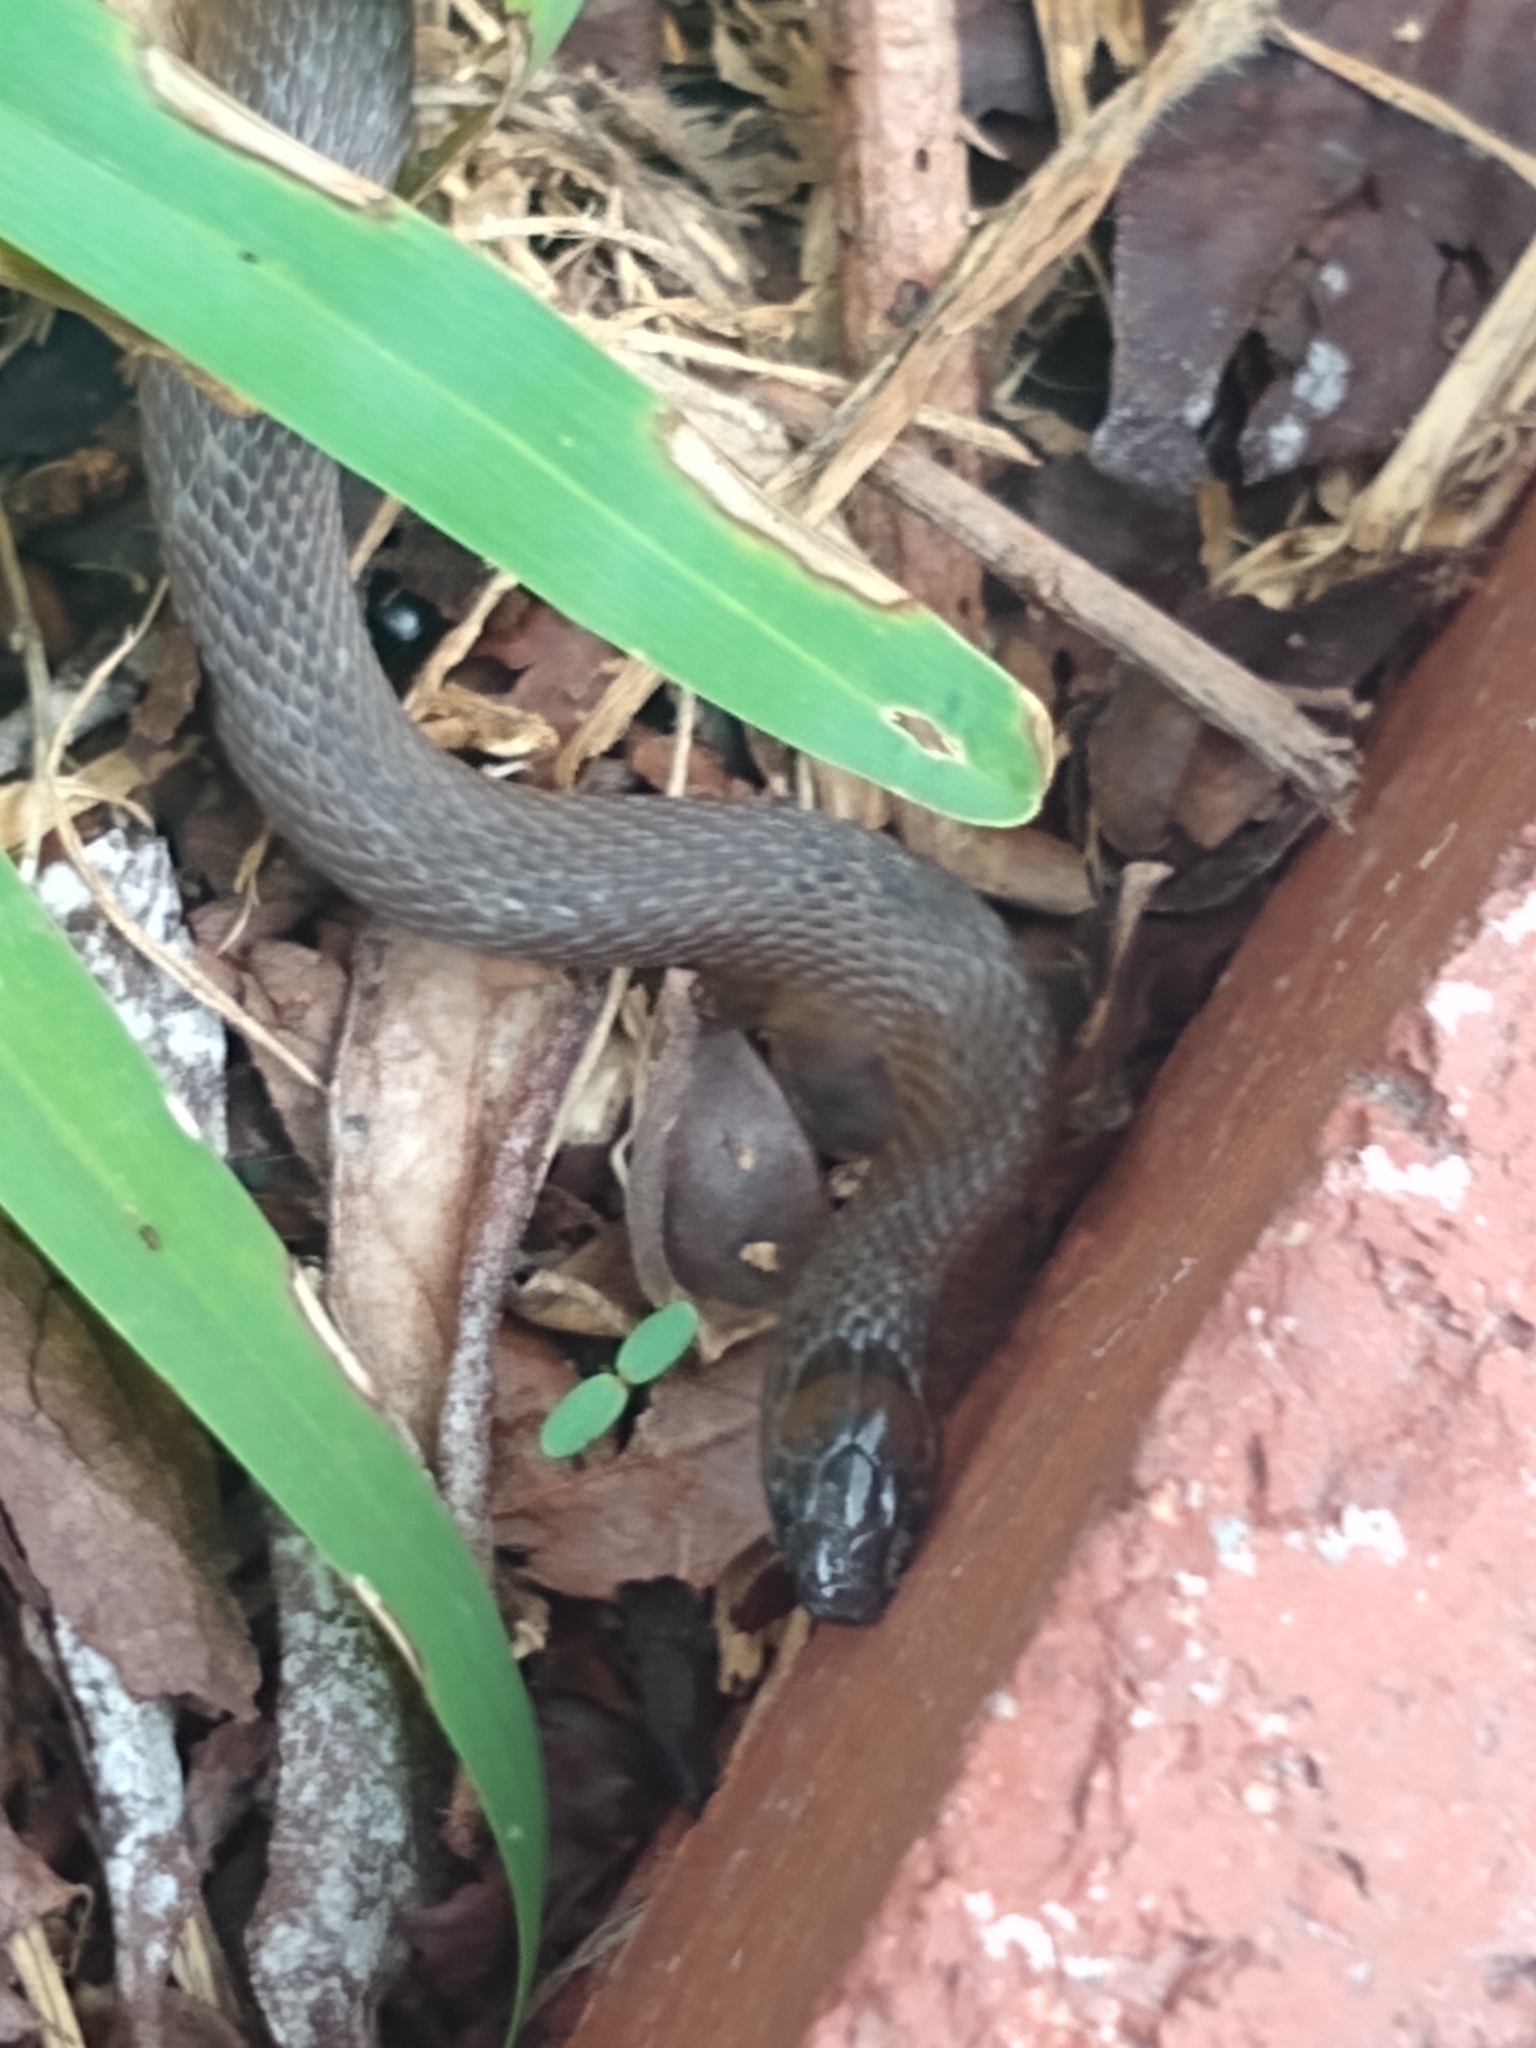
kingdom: Animalia
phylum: Chordata
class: Squamata
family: Colubridae
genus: Haldea
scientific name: Haldea striatula
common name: Rough earth snake
